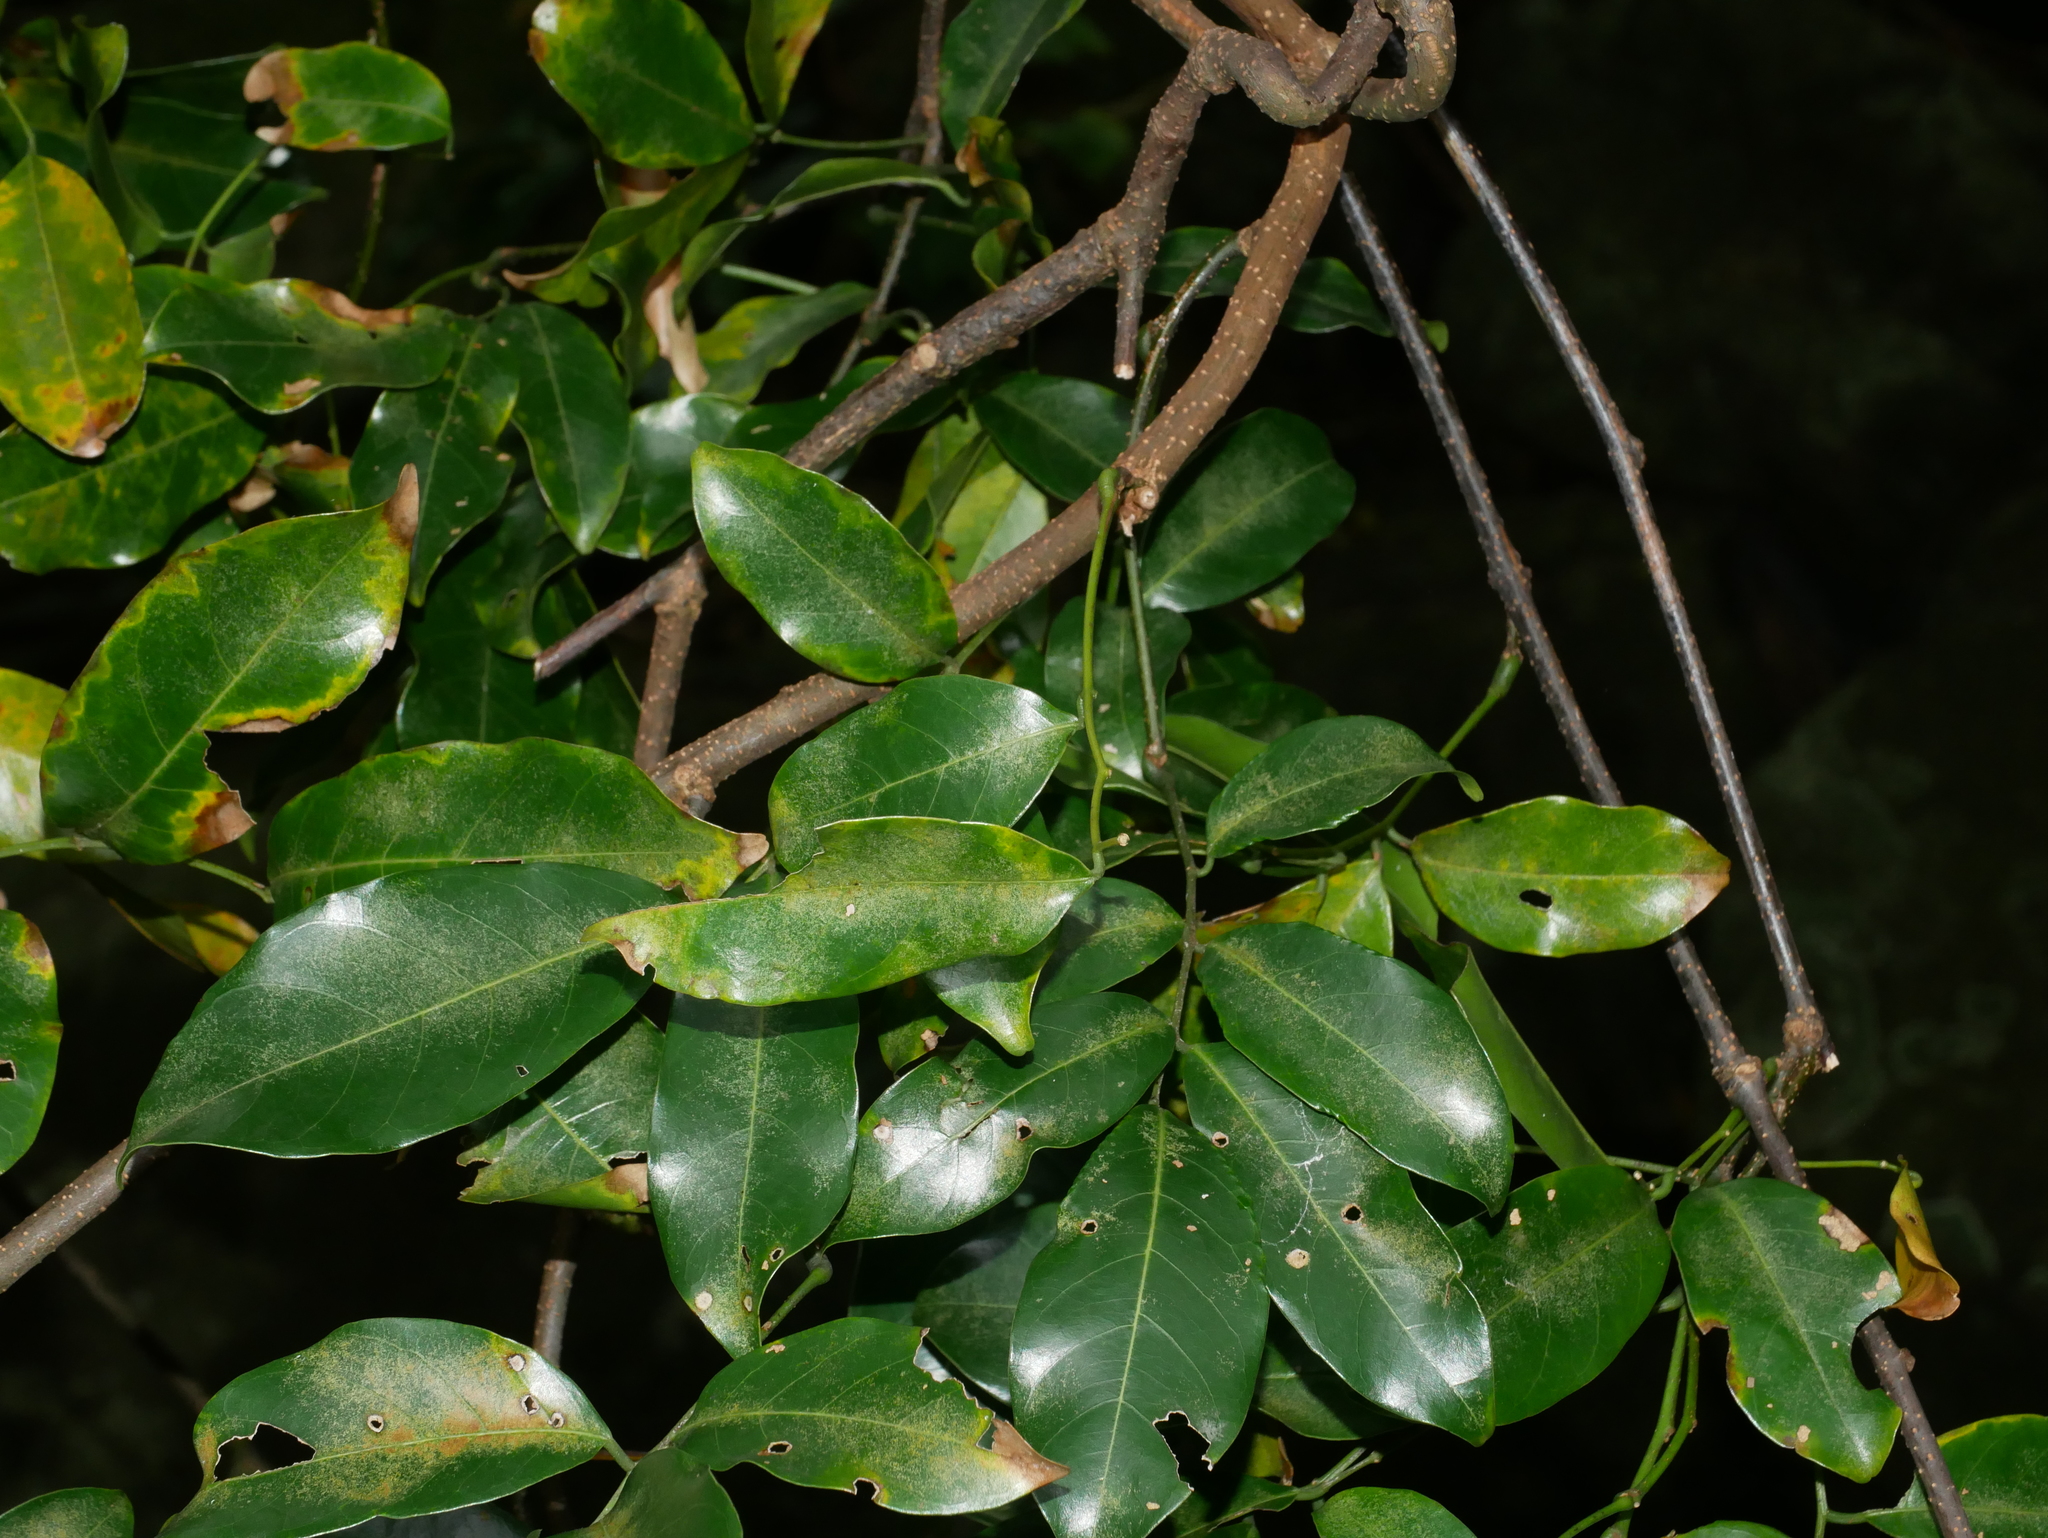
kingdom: Plantae
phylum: Tracheophyta
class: Magnoliopsida
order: Fabales
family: Fabaceae
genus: Derris
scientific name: Derris laxiflora
